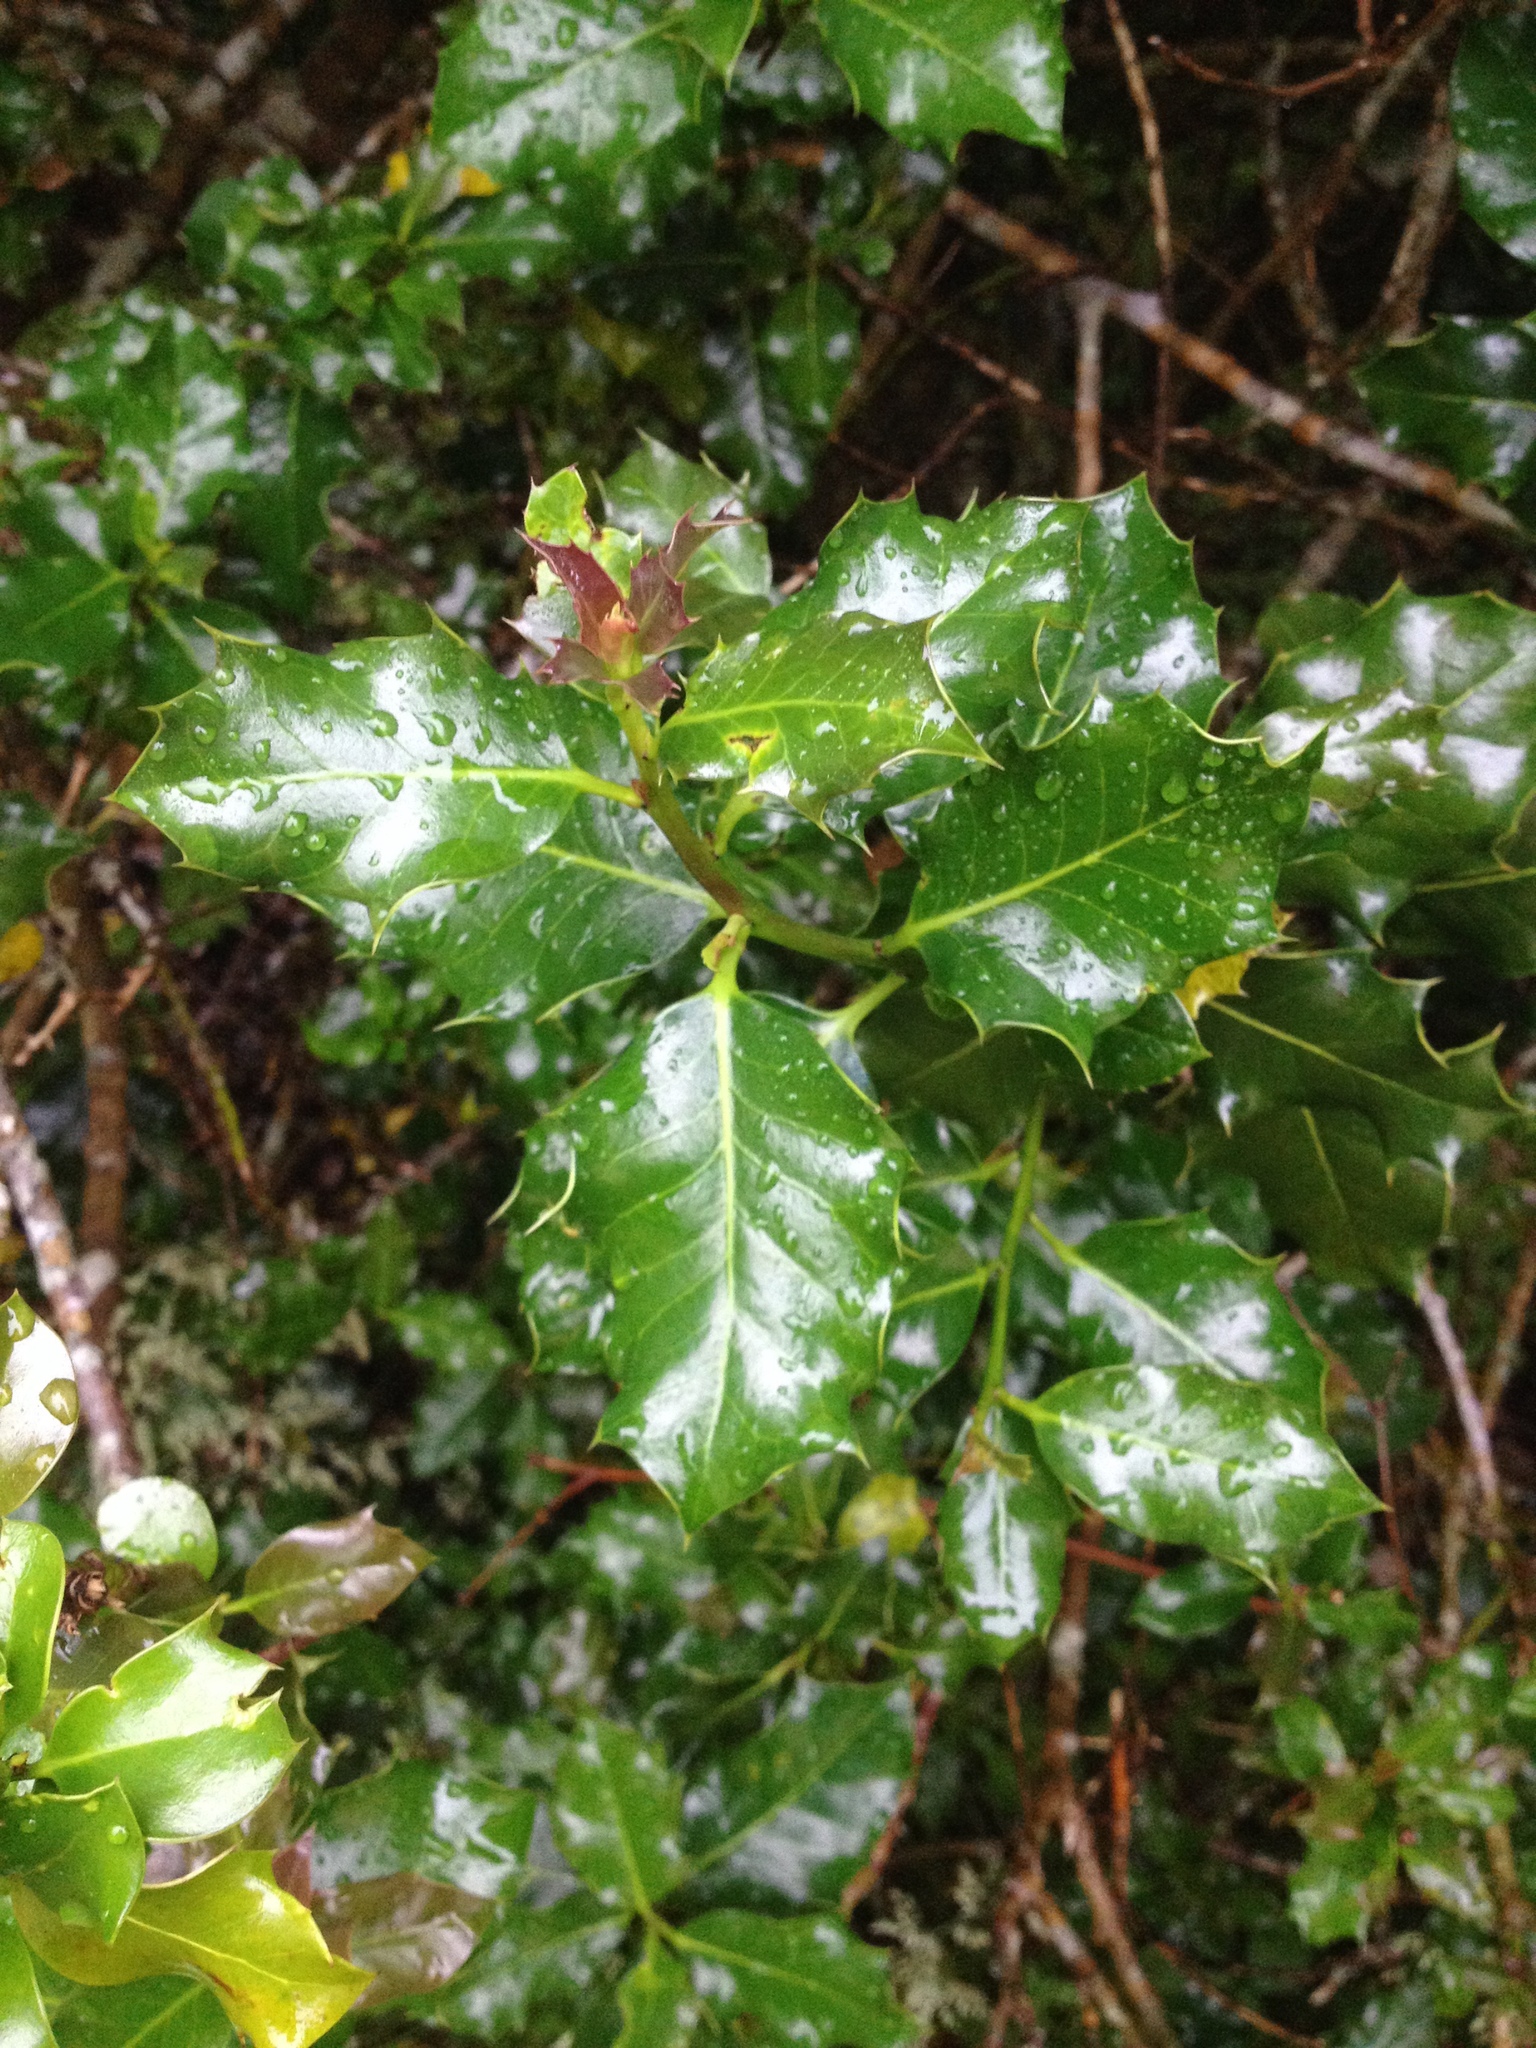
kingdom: Plantae
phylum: Tracheophyta
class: Magnoliopsida
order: Aquifoliales
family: Aquifoliaceae
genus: Ilex
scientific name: Ilex opaca
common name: American holly
